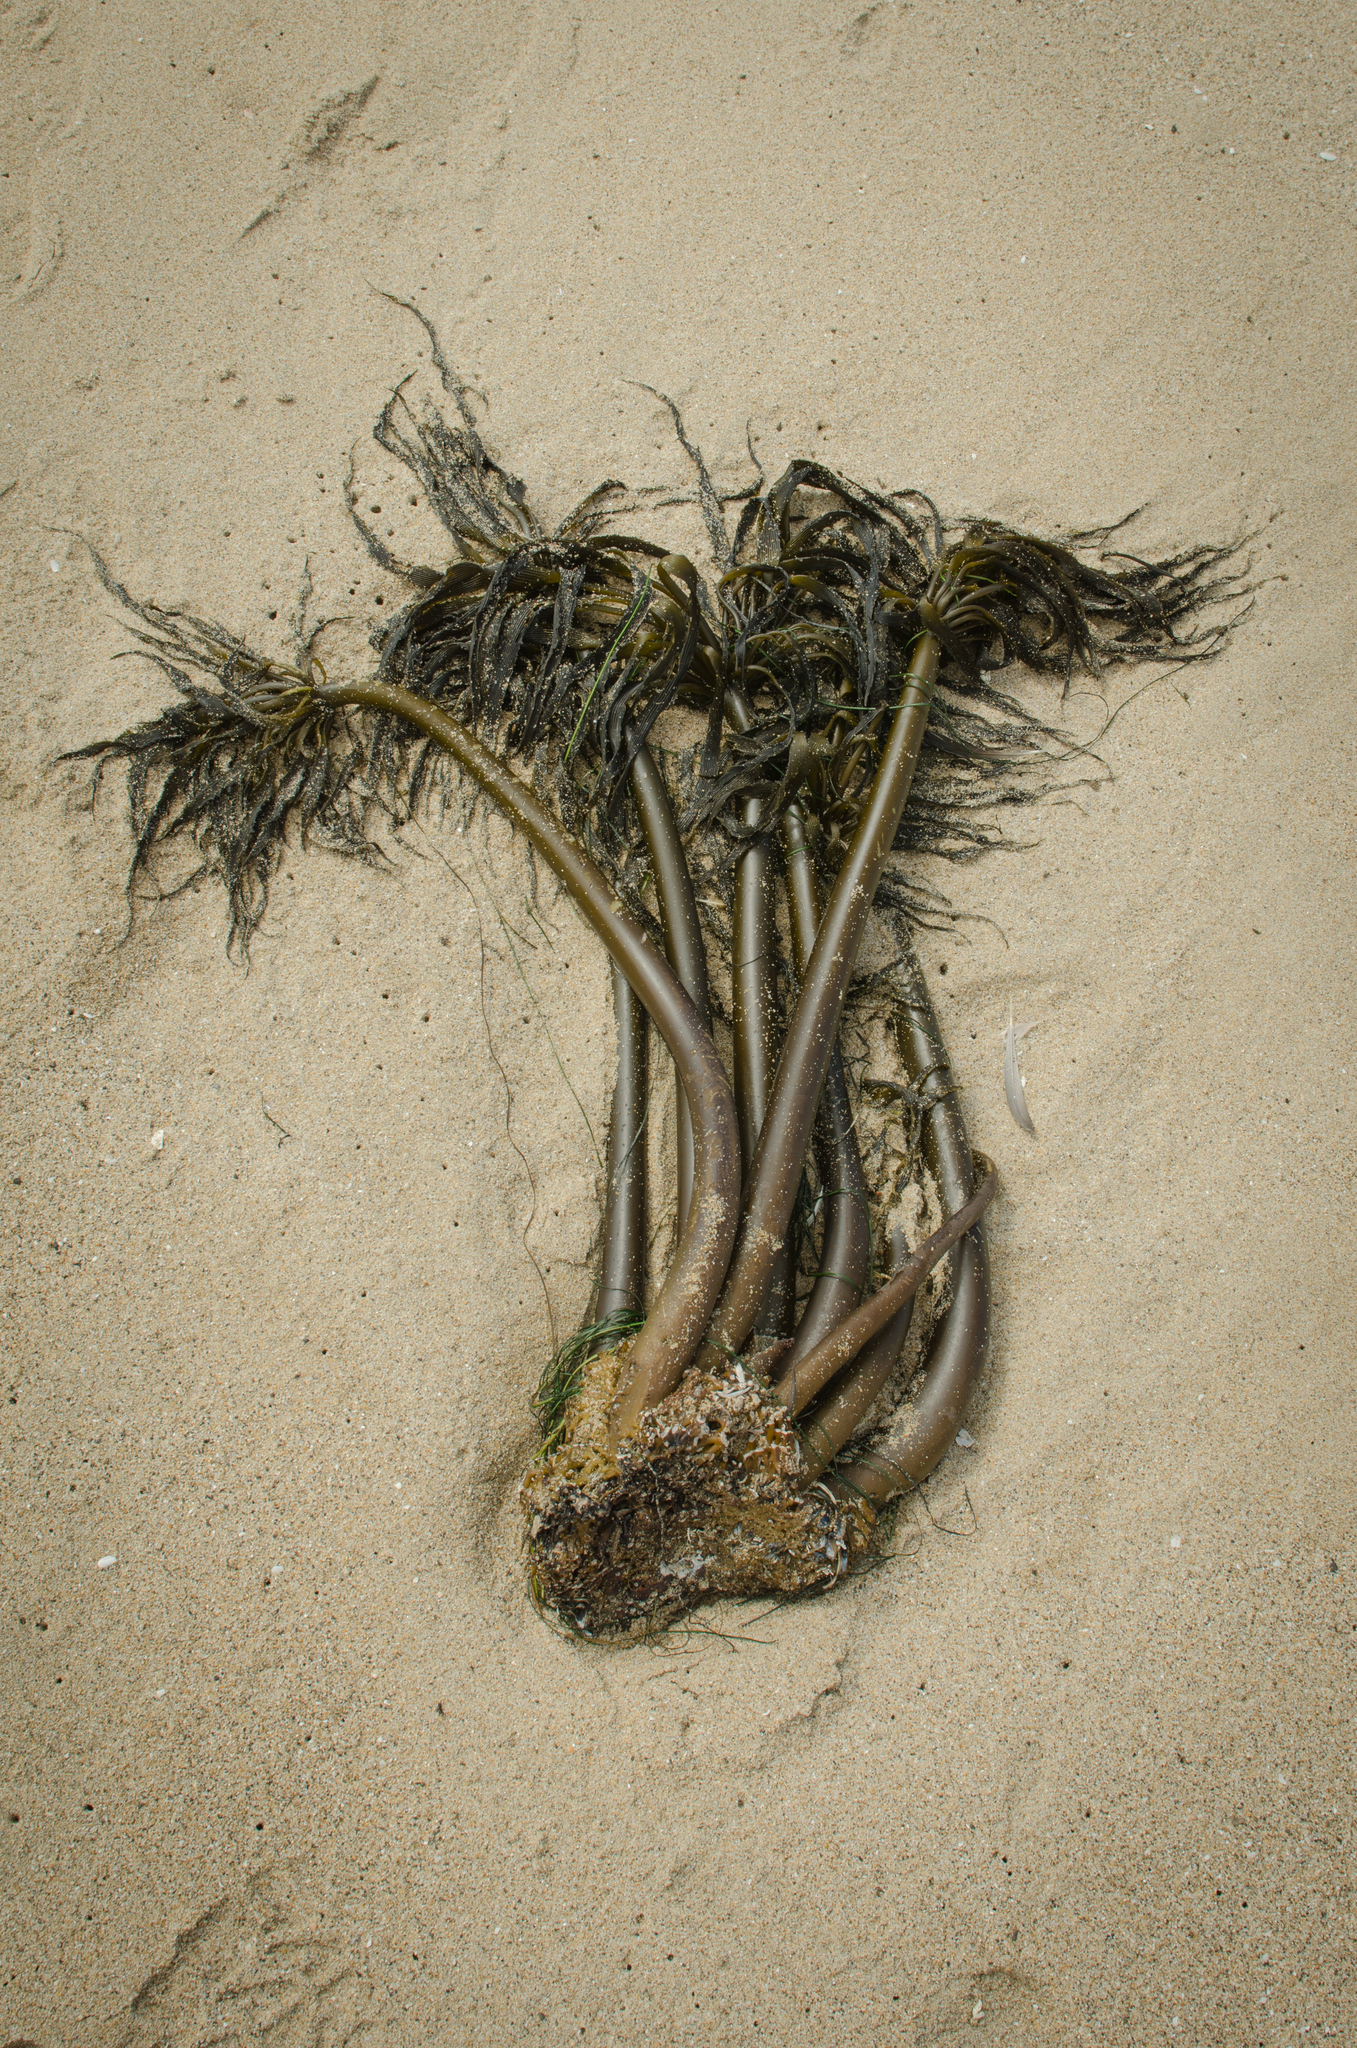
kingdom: Chromista
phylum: Ochrophyta
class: Phaeophyceae
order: Laminariales
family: Laminariaceae
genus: Postelsia
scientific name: Postelsia palmiformis
